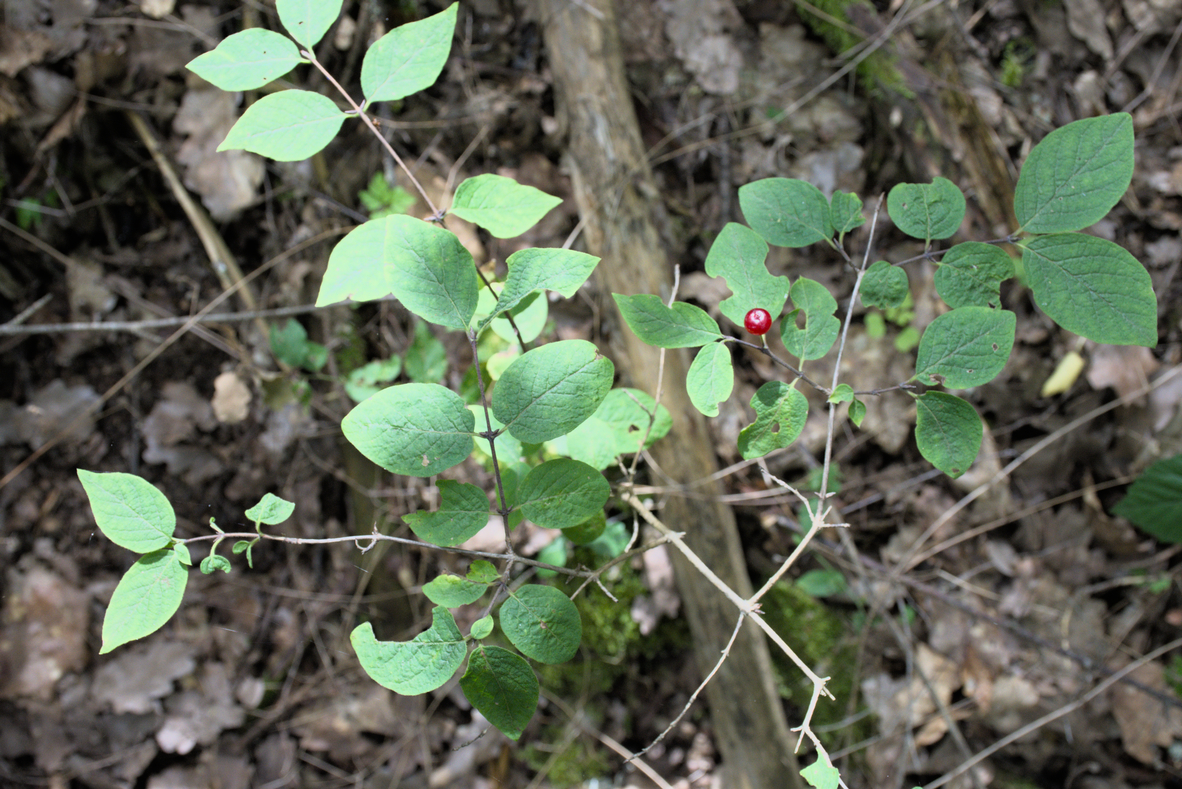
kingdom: Plantae
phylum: Tracheophyta
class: Magnoliopsida
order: Dipsacales
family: Caprifoliaceae
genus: Lonicera
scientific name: Lonicera xylosteum
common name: Fly honeysuckle
